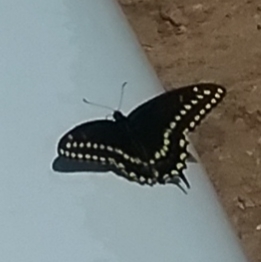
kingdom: Animalia
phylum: Arthropoda
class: Insecta
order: Lepidoptera
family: Papilionidae
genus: Papilio
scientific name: Papilio polyxenes
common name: Black swallowtail
